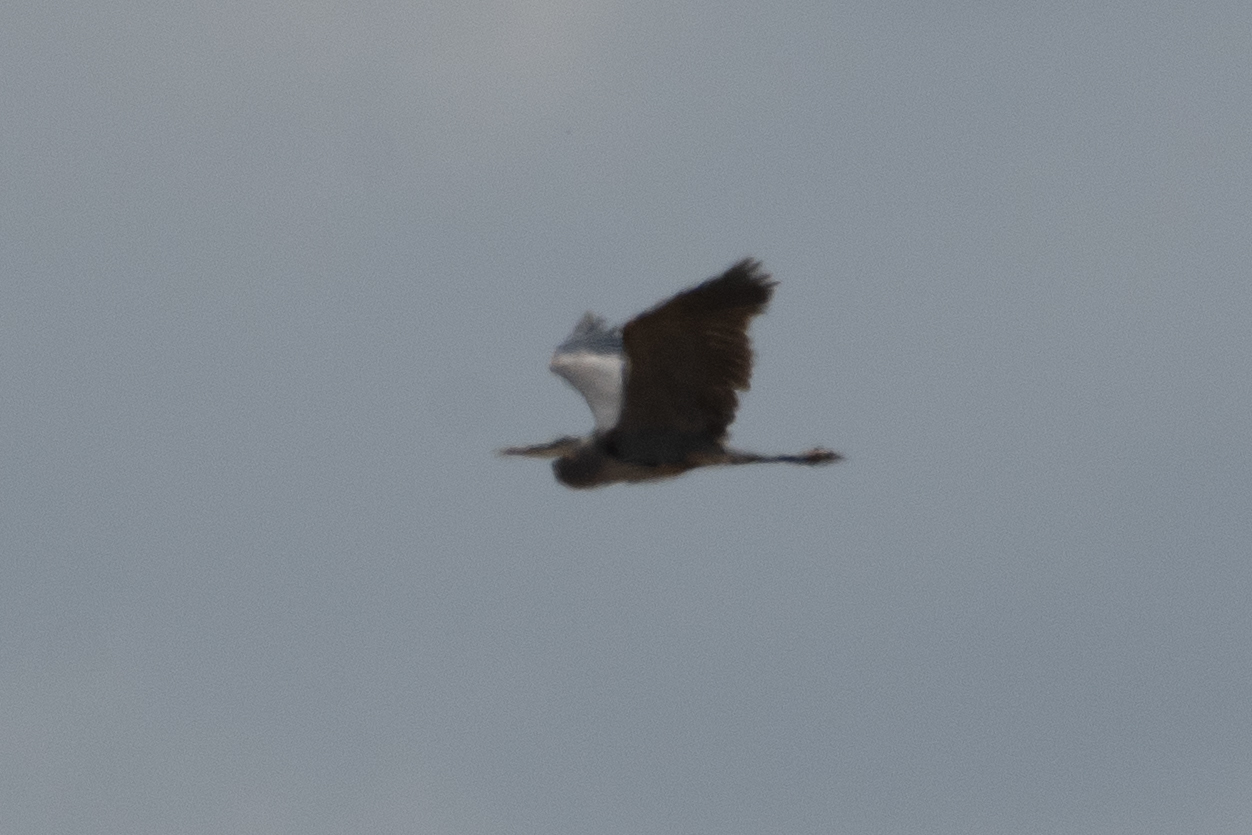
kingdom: Animalia
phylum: Chordata
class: Aves
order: Pelecaniformes
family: Ardeidae
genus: Ardea
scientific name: Ardea herodias
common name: Great blue heron
